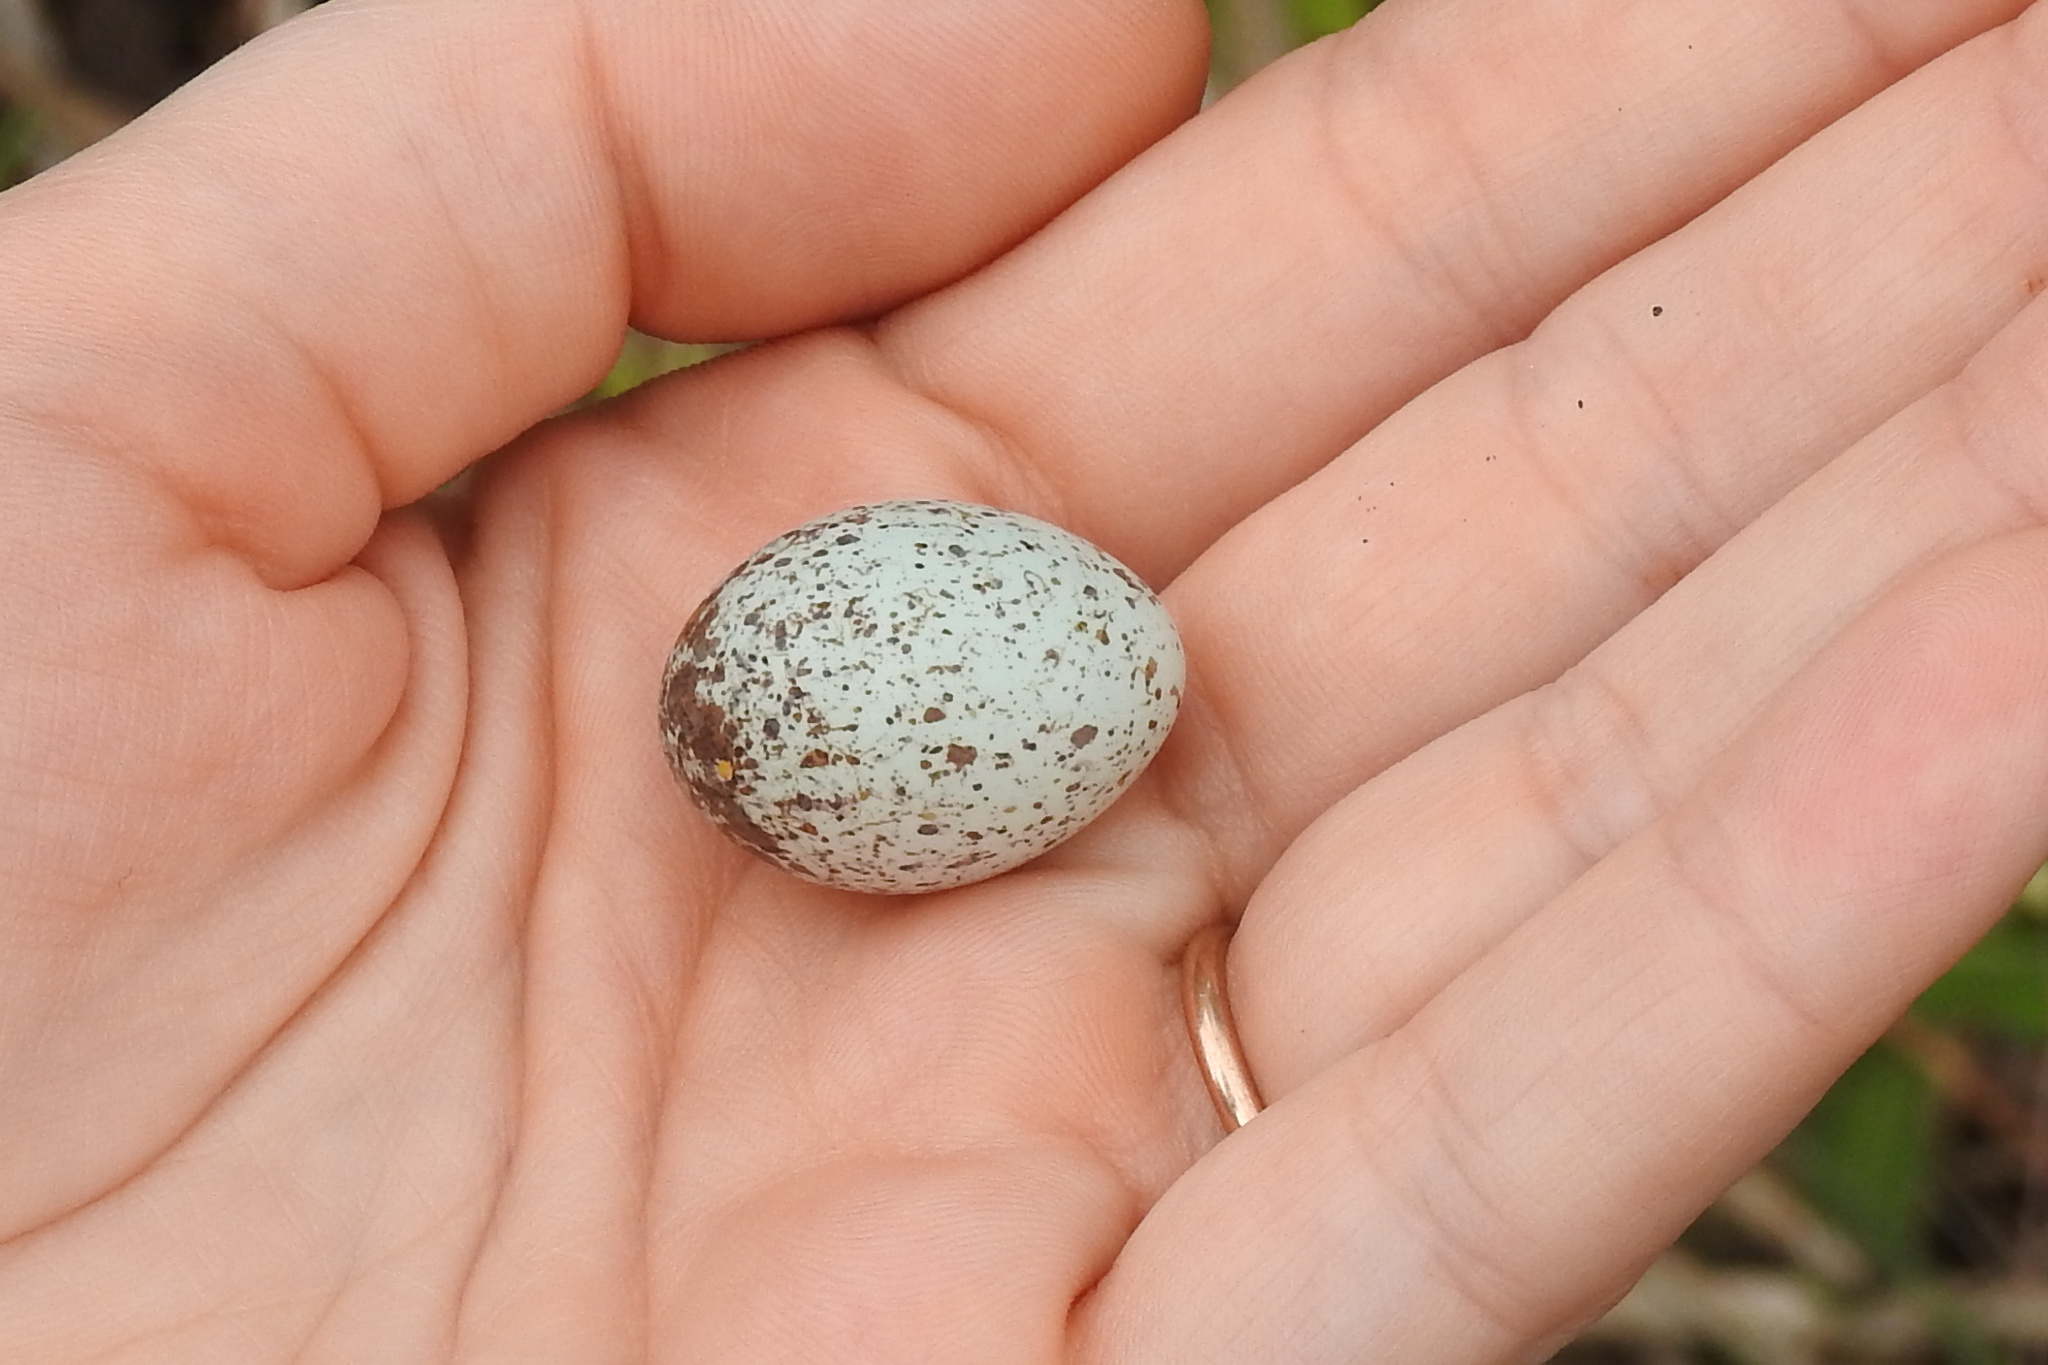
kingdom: Animalia
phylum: Chordata
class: Aves
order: Passeriformes
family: Passeridae
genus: Passer
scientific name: Passer domesticus
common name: House sparrow
